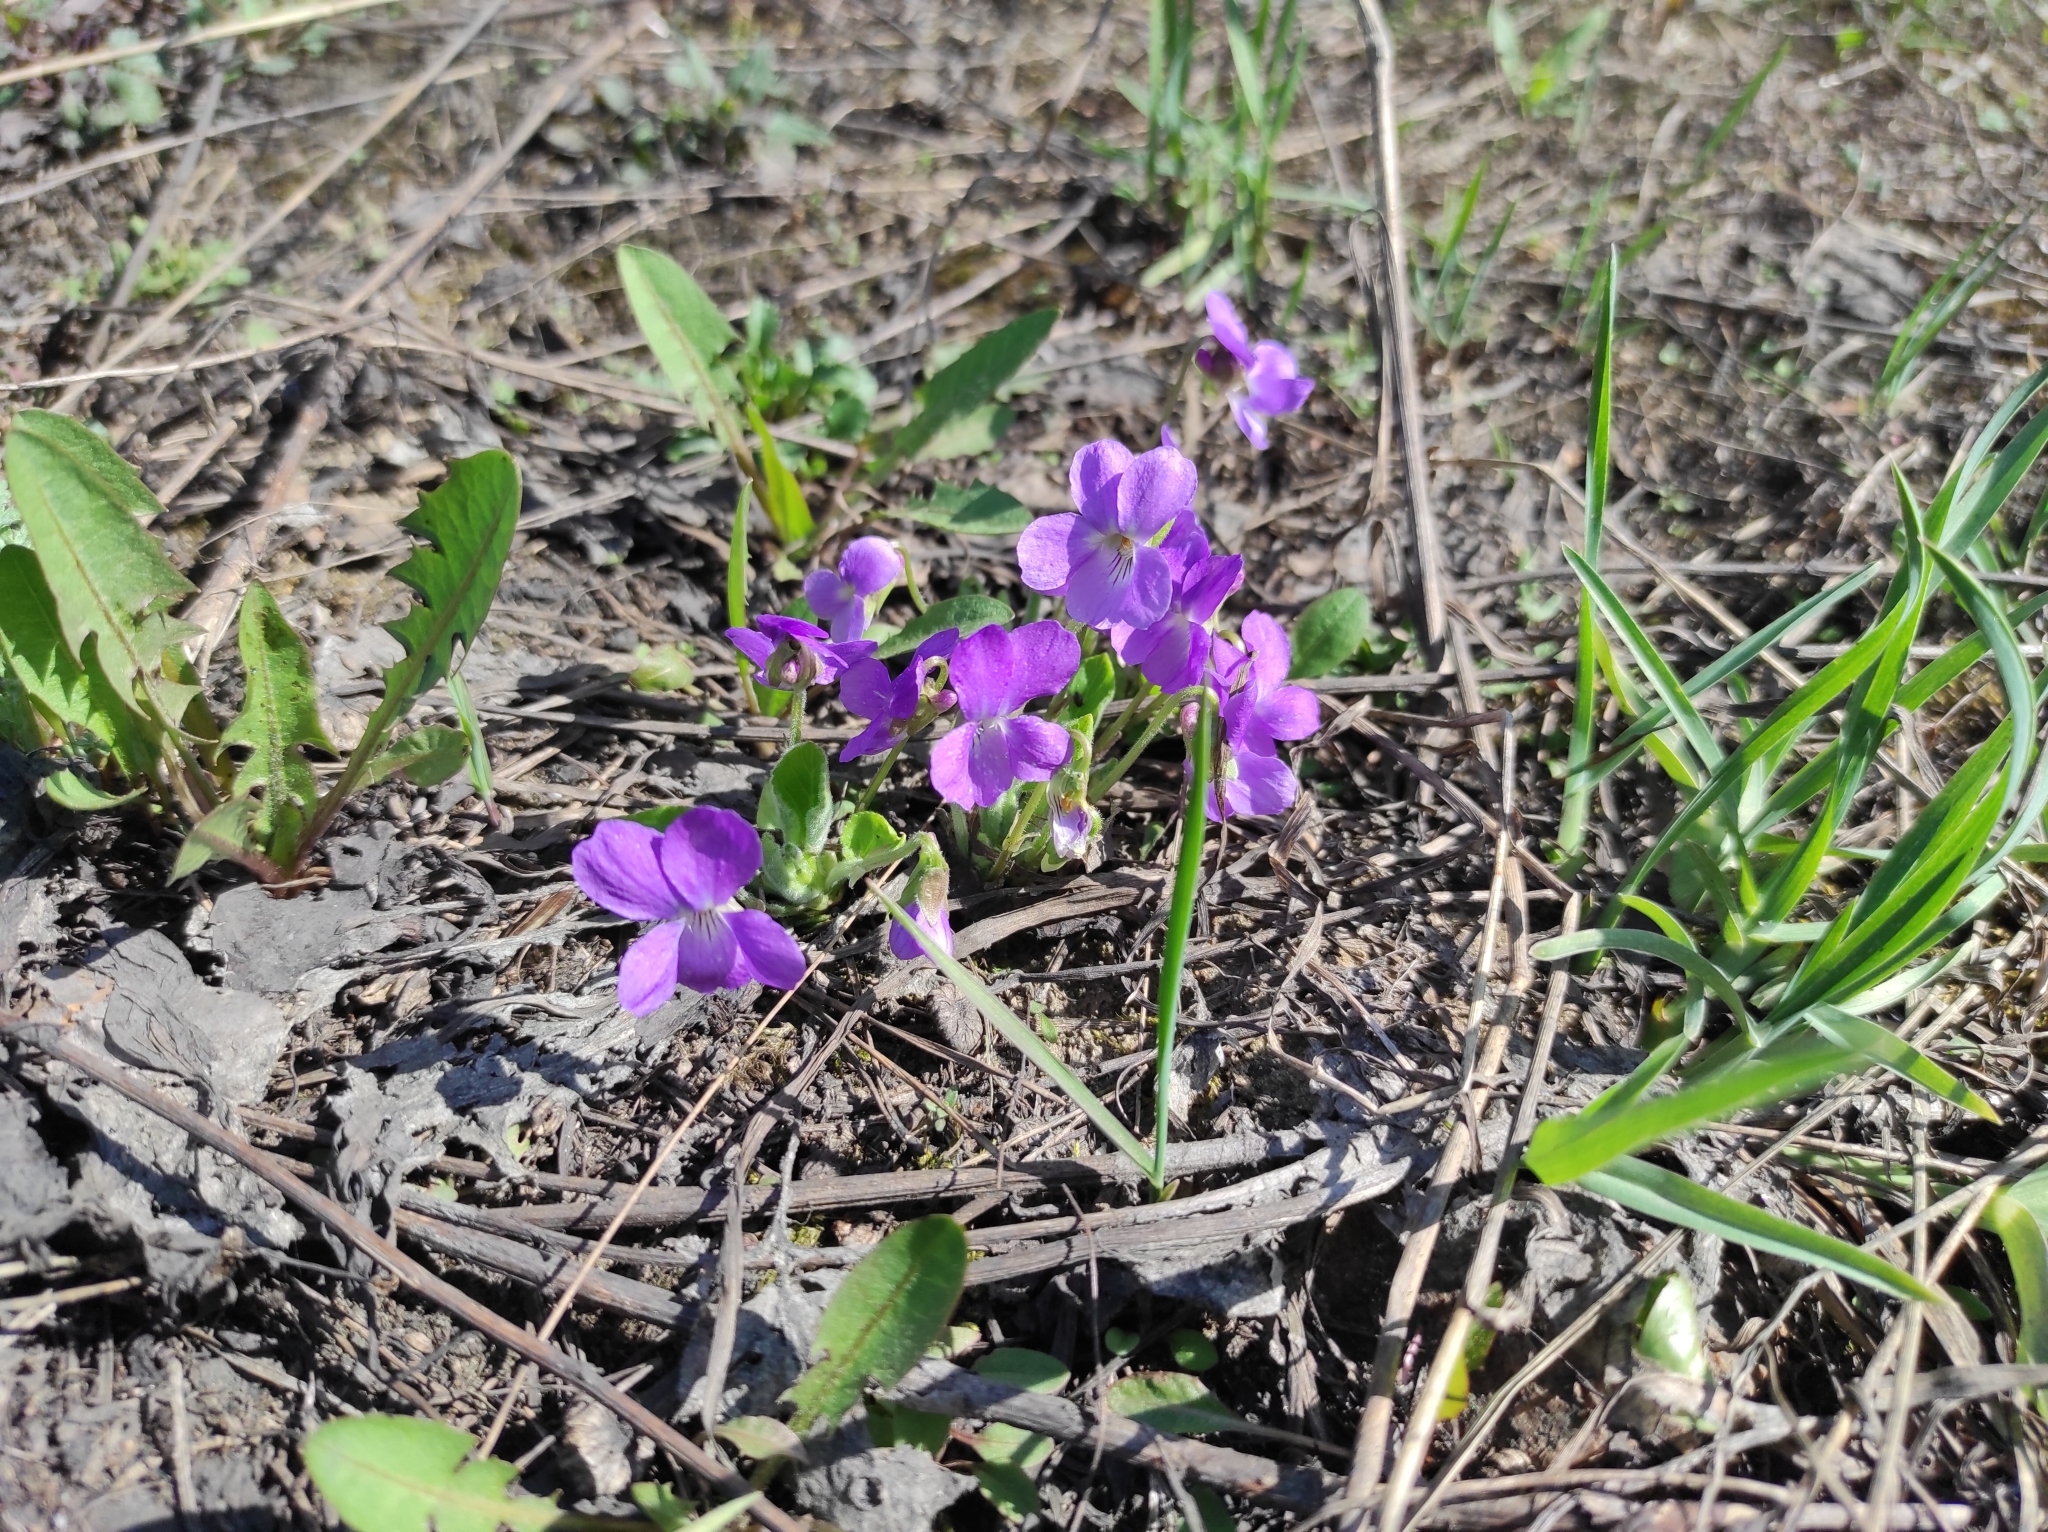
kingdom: Plantae
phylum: Tracheophyta
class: Magnoliopsida
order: Malpighiales
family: Violaceae
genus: Viola
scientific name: Viola hirta
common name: Hairy violet
